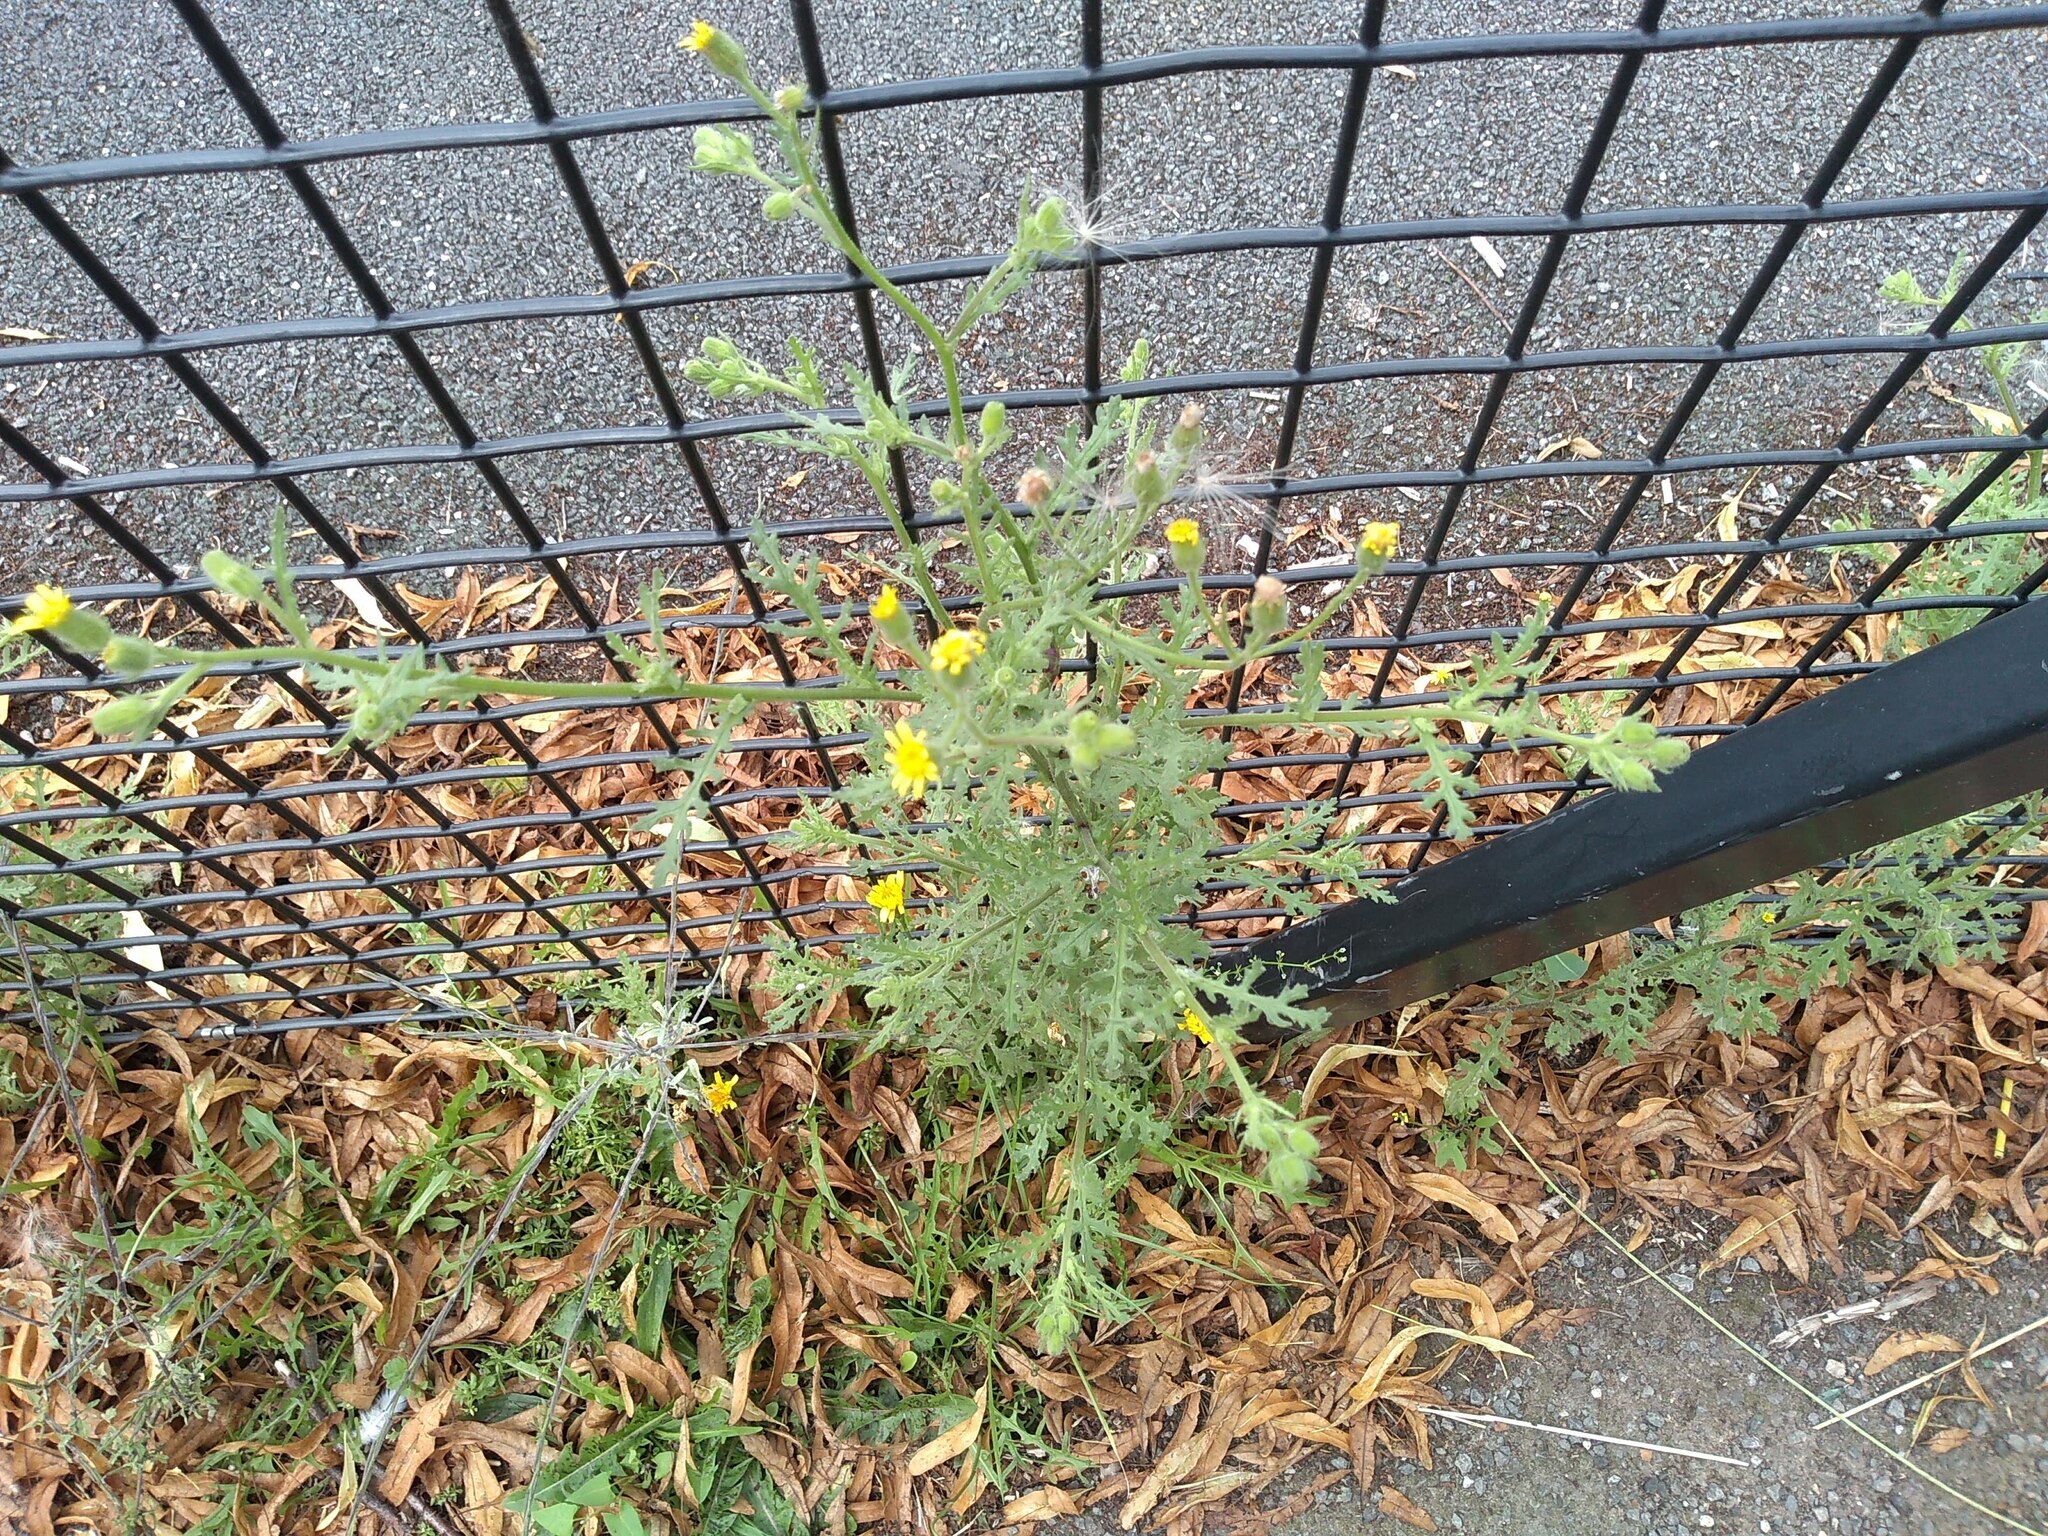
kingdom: Plantae
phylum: Tracheophyta
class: Magnoliopsida
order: Asterales
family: Asteraceae
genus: Senecio
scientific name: Senecio viscosus
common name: Sticky groundsel
